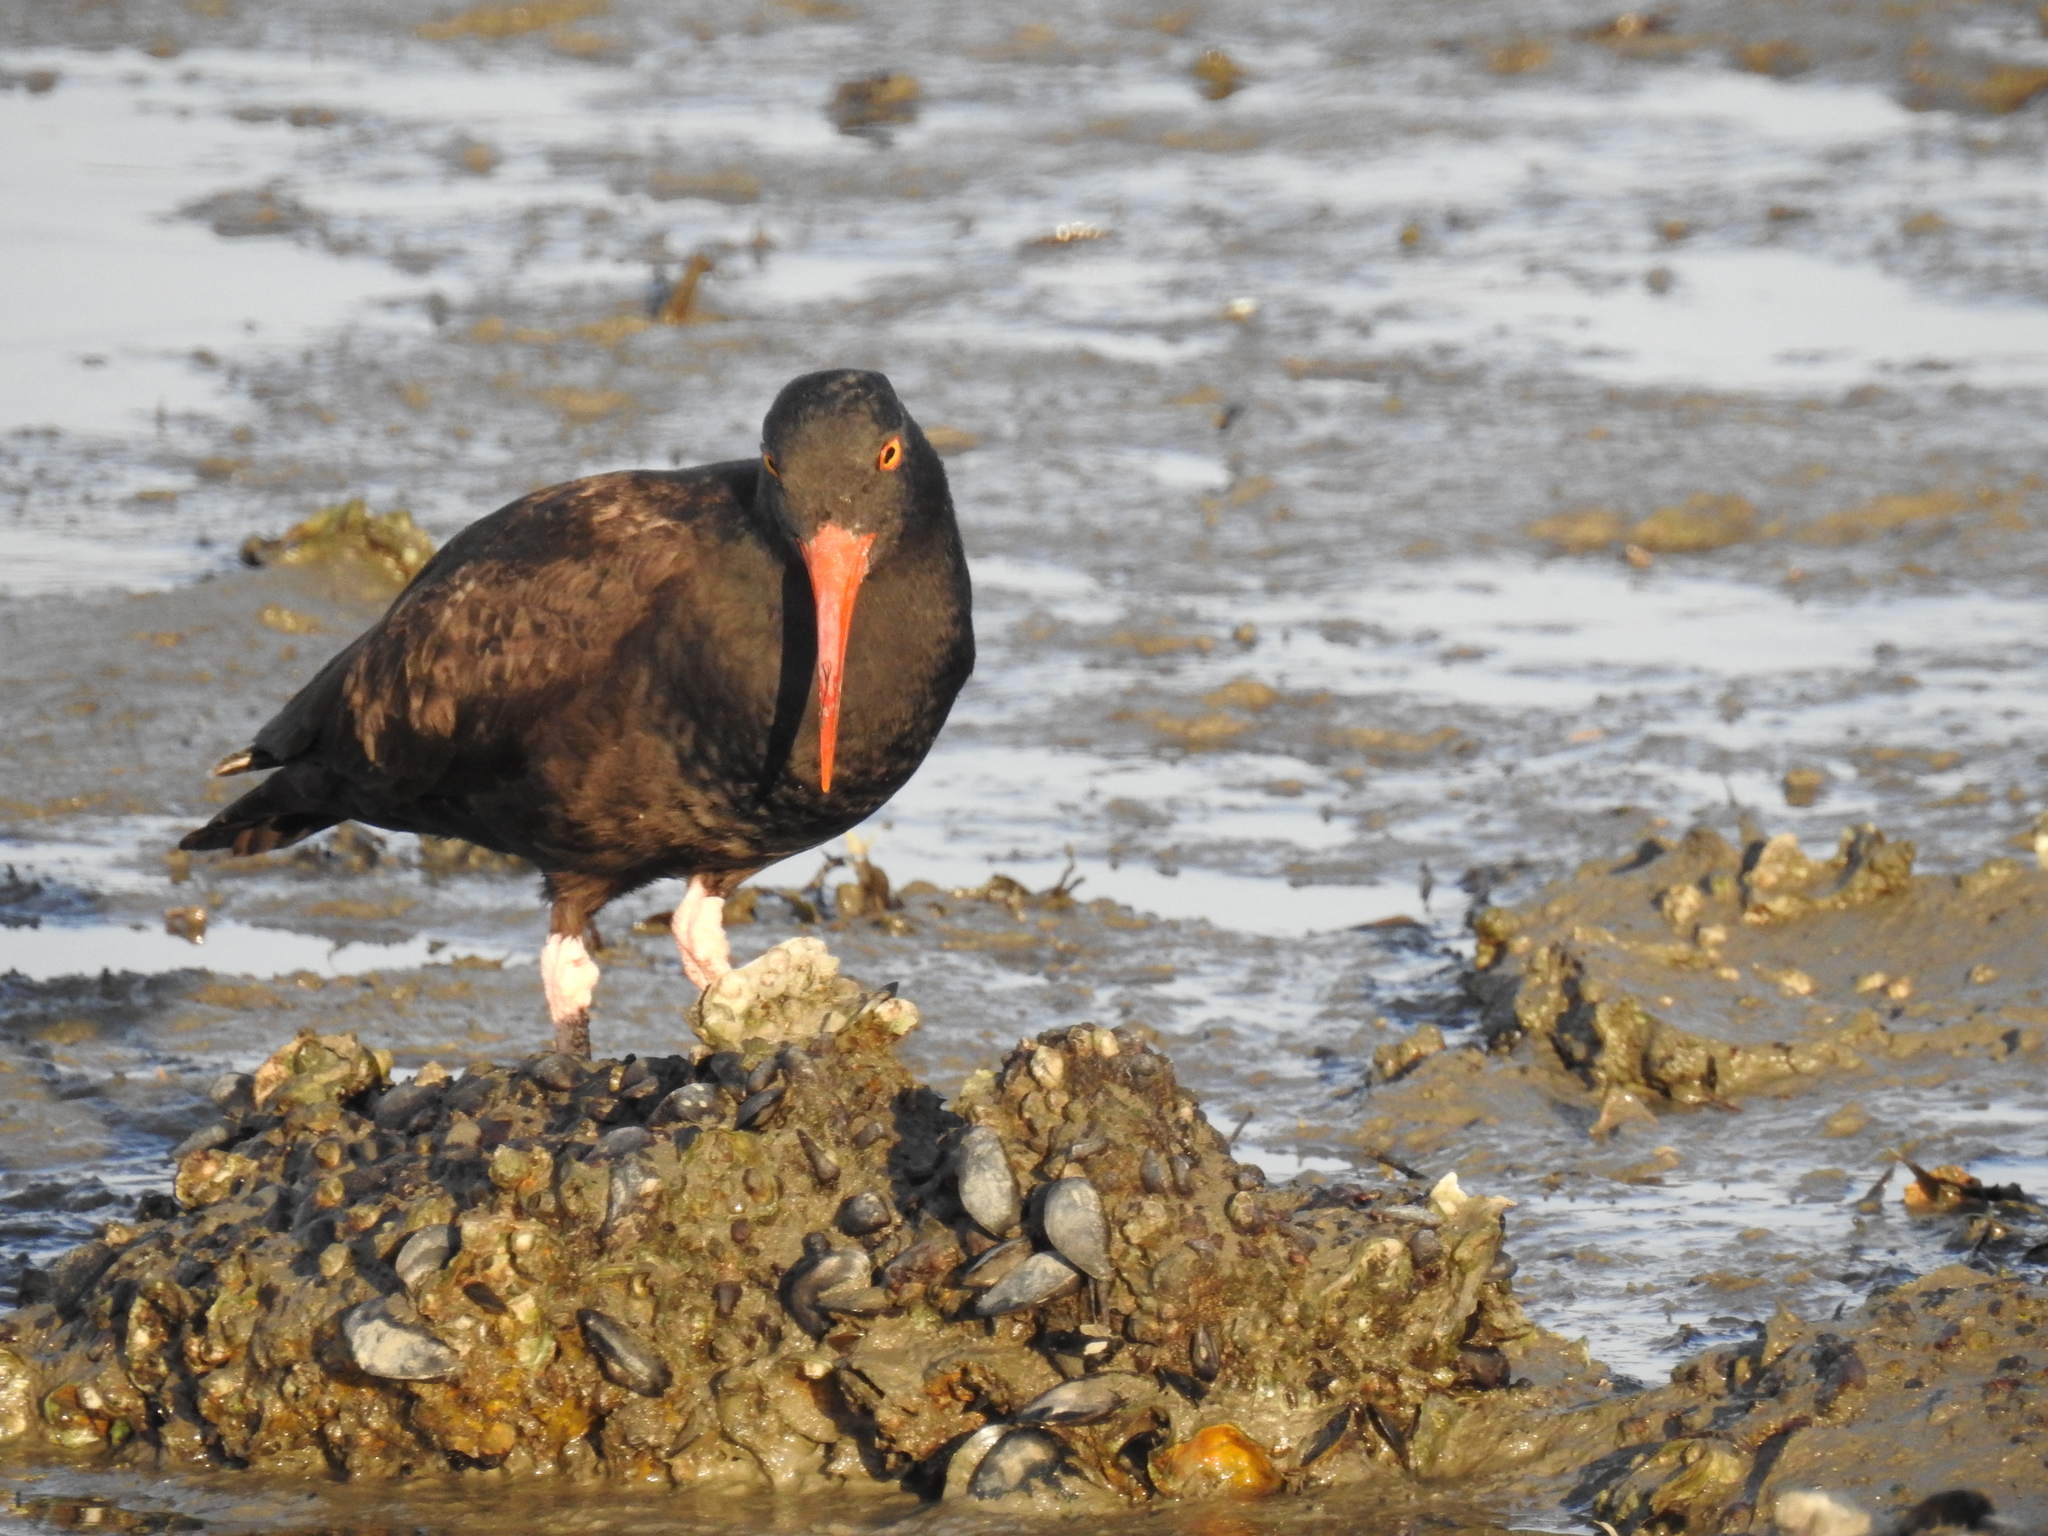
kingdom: Animalia
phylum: Chordata
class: Aves
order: Charadriiformes
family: Haematopodidae
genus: Haematopus
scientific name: Haematopus bachmani
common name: Black oystercatcher
